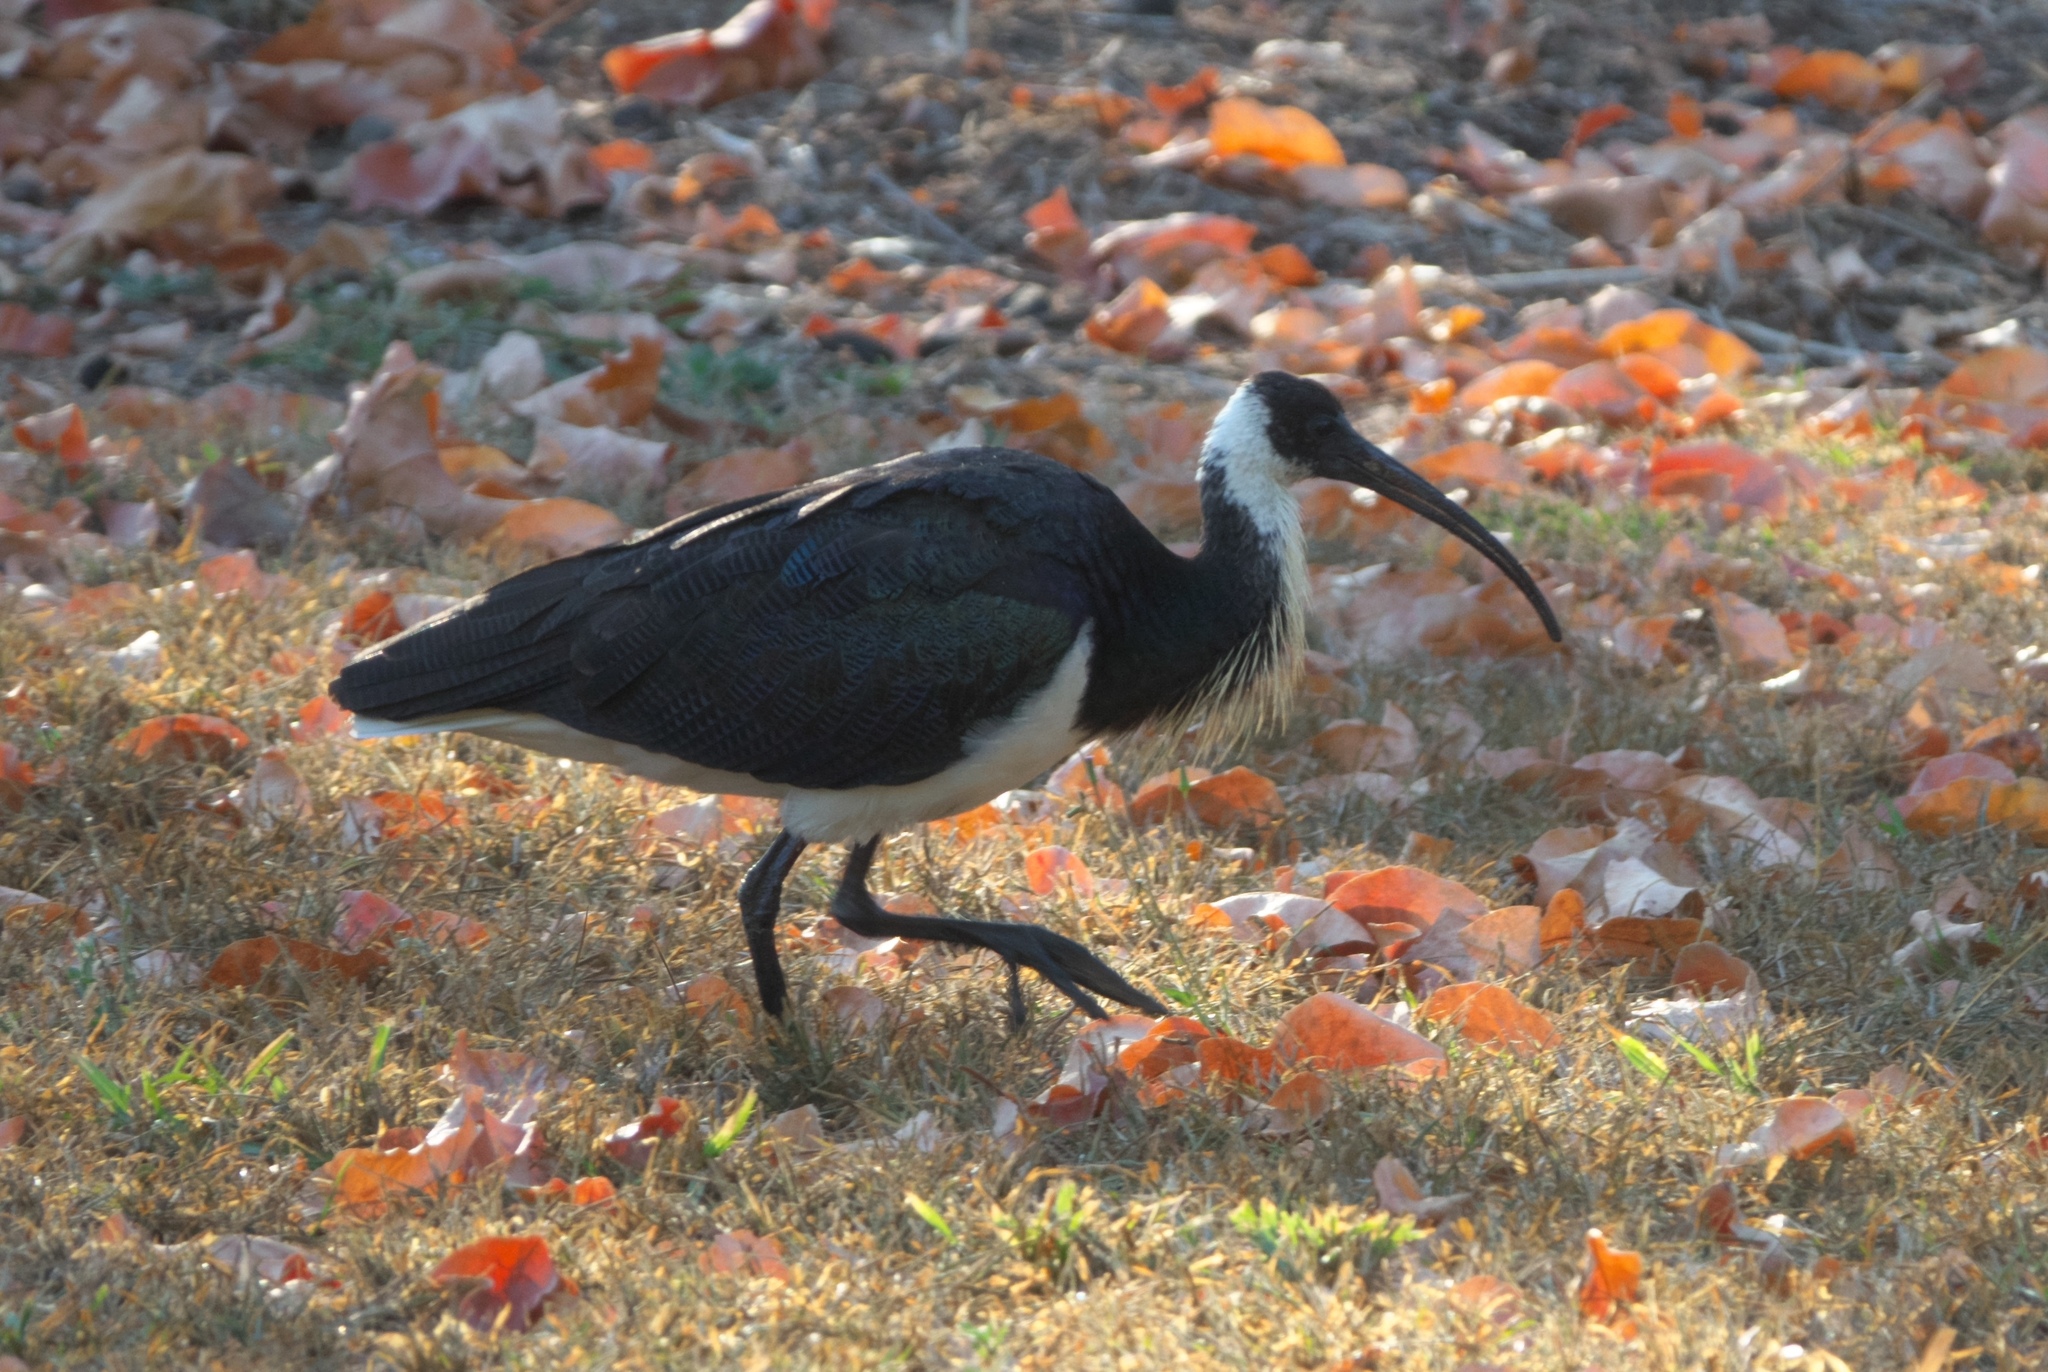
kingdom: Animalia
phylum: Chordata
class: Aves
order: Pelecaniformes
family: Threskiornithidae
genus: Threskiornis
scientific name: Threskiornis spinicollis
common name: Straw-necked ibis
